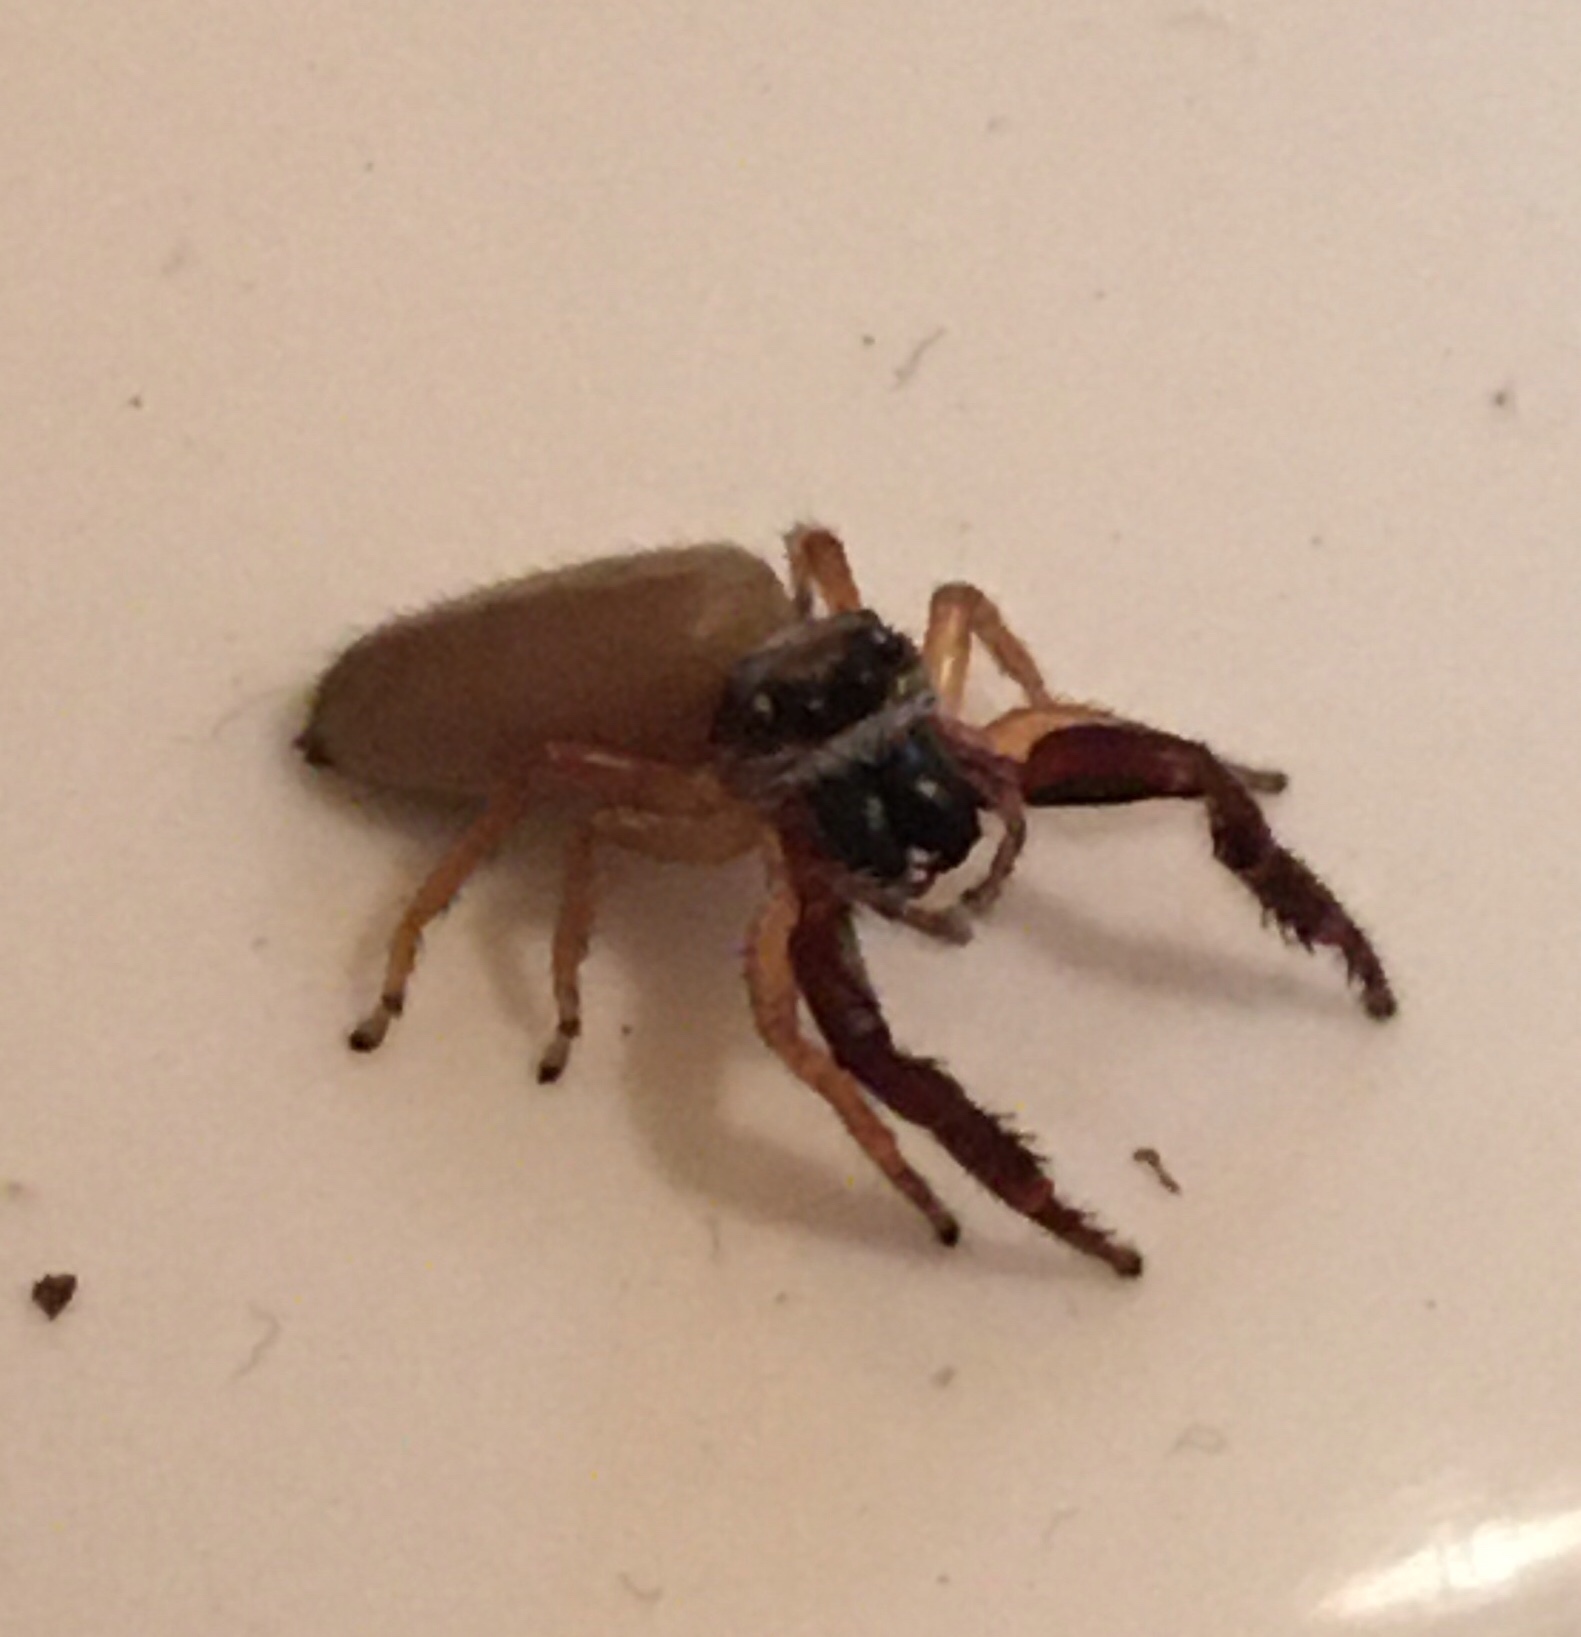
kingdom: Animalia
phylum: Arthropoda
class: Arachnida
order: Araneae
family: Salticidae
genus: Trite
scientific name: Trite planiceps
